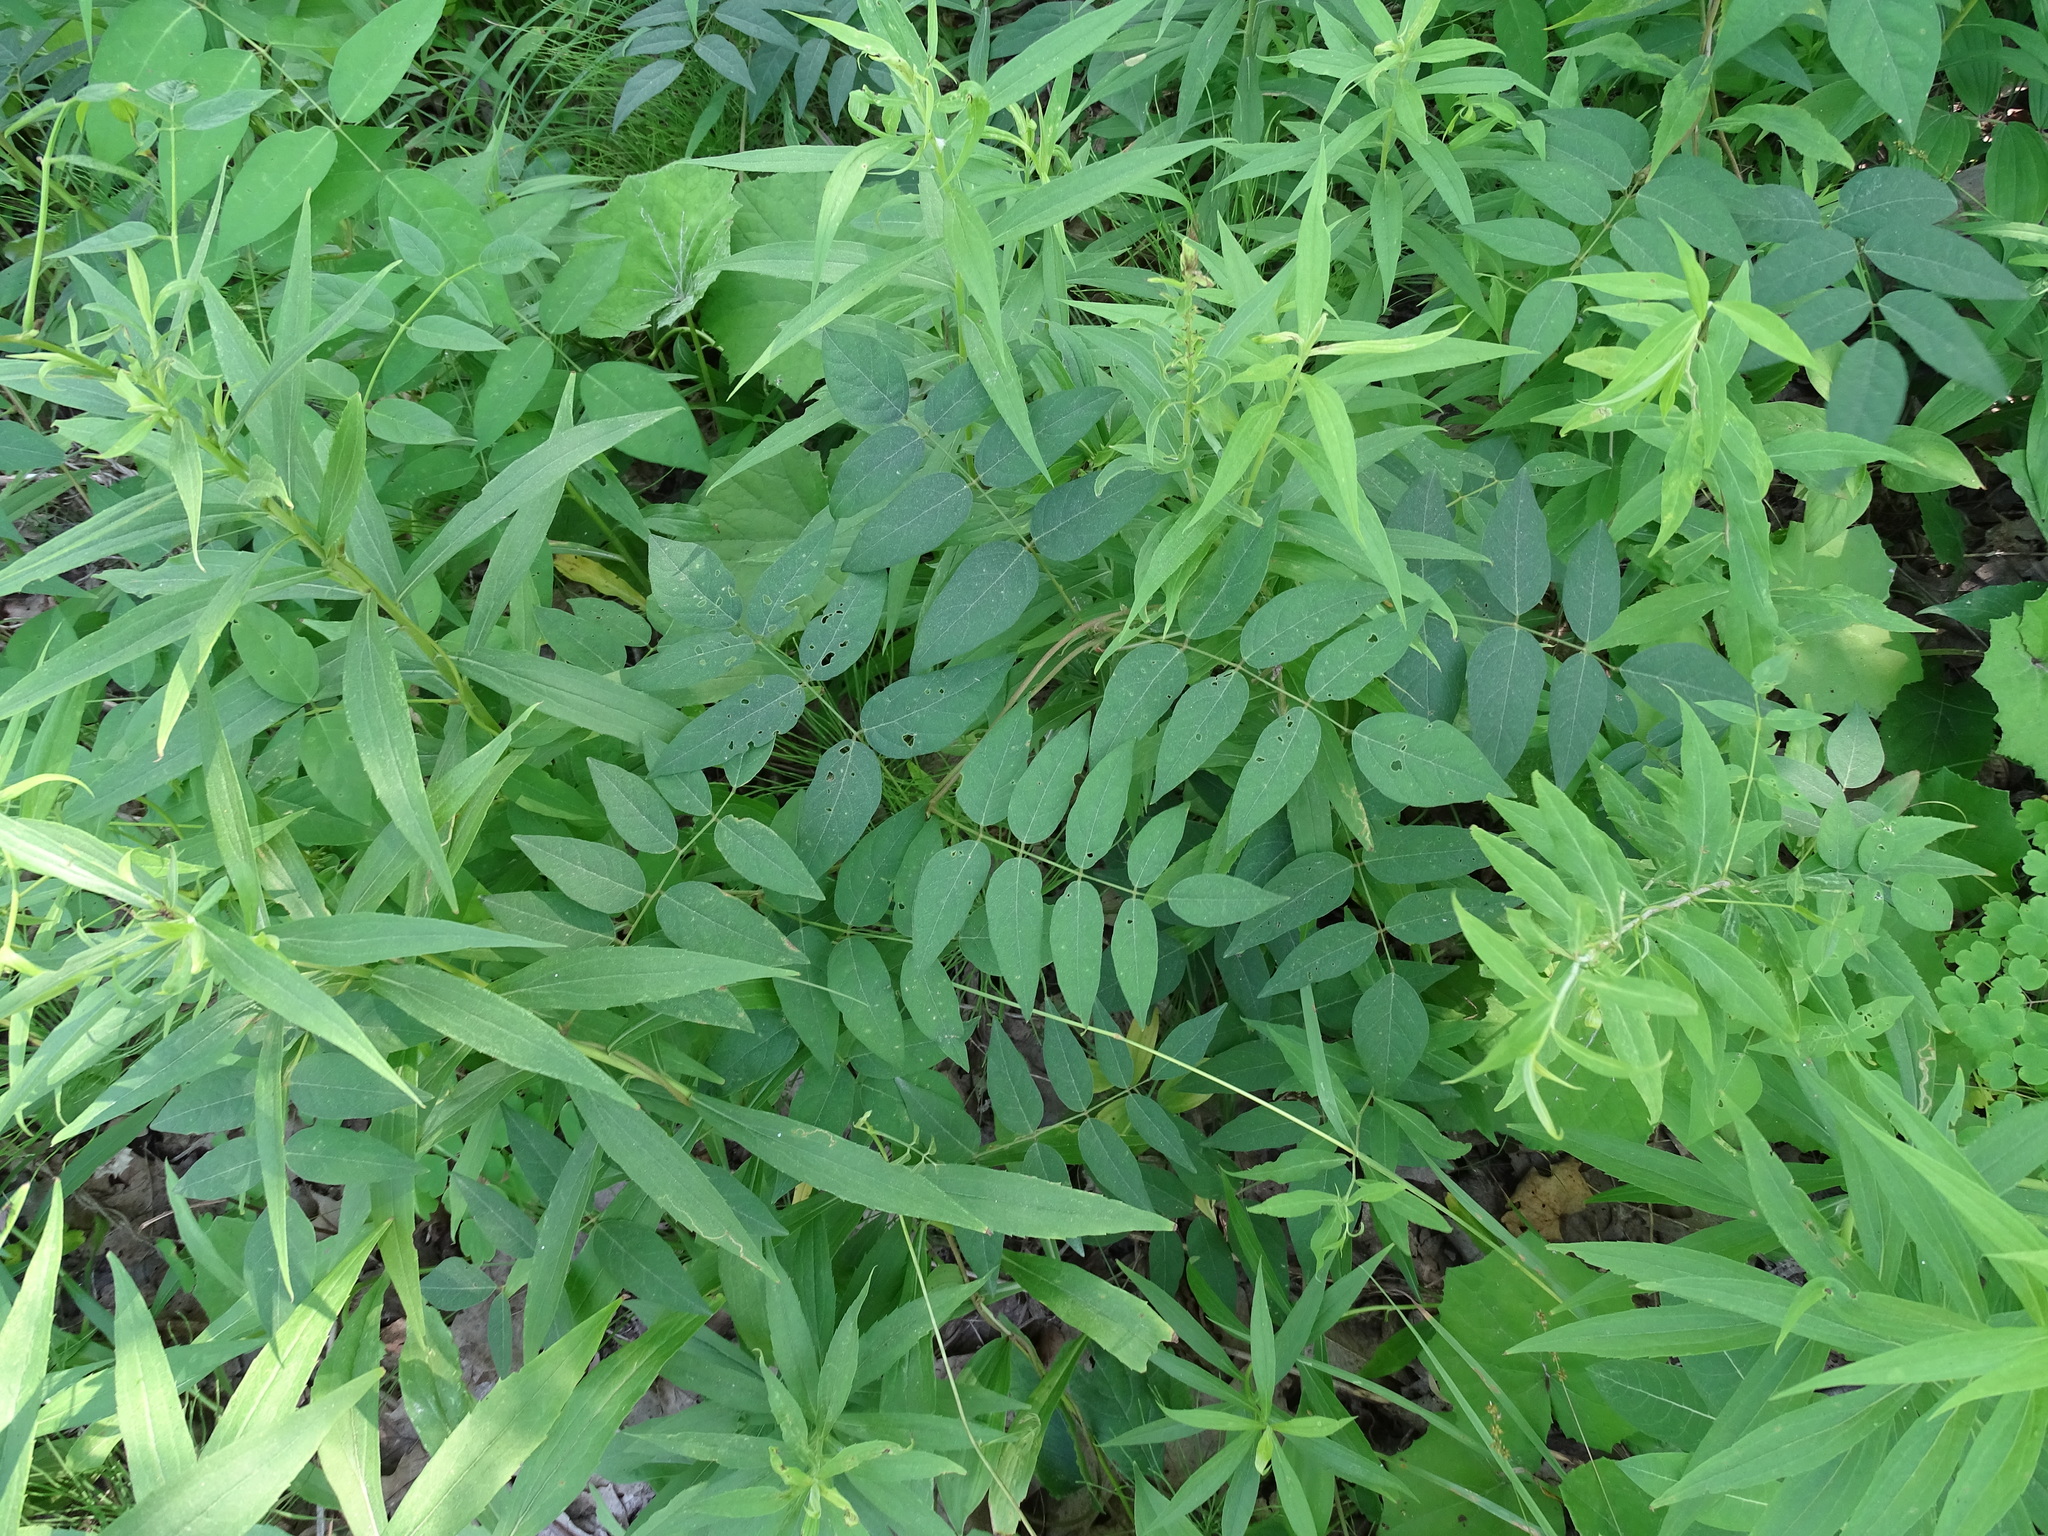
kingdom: Plantae
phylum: Tracheophyta
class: Magnoliopsida
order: Fabales
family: Fabaceae
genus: Apios
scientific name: Apios americana
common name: American potato-bean
